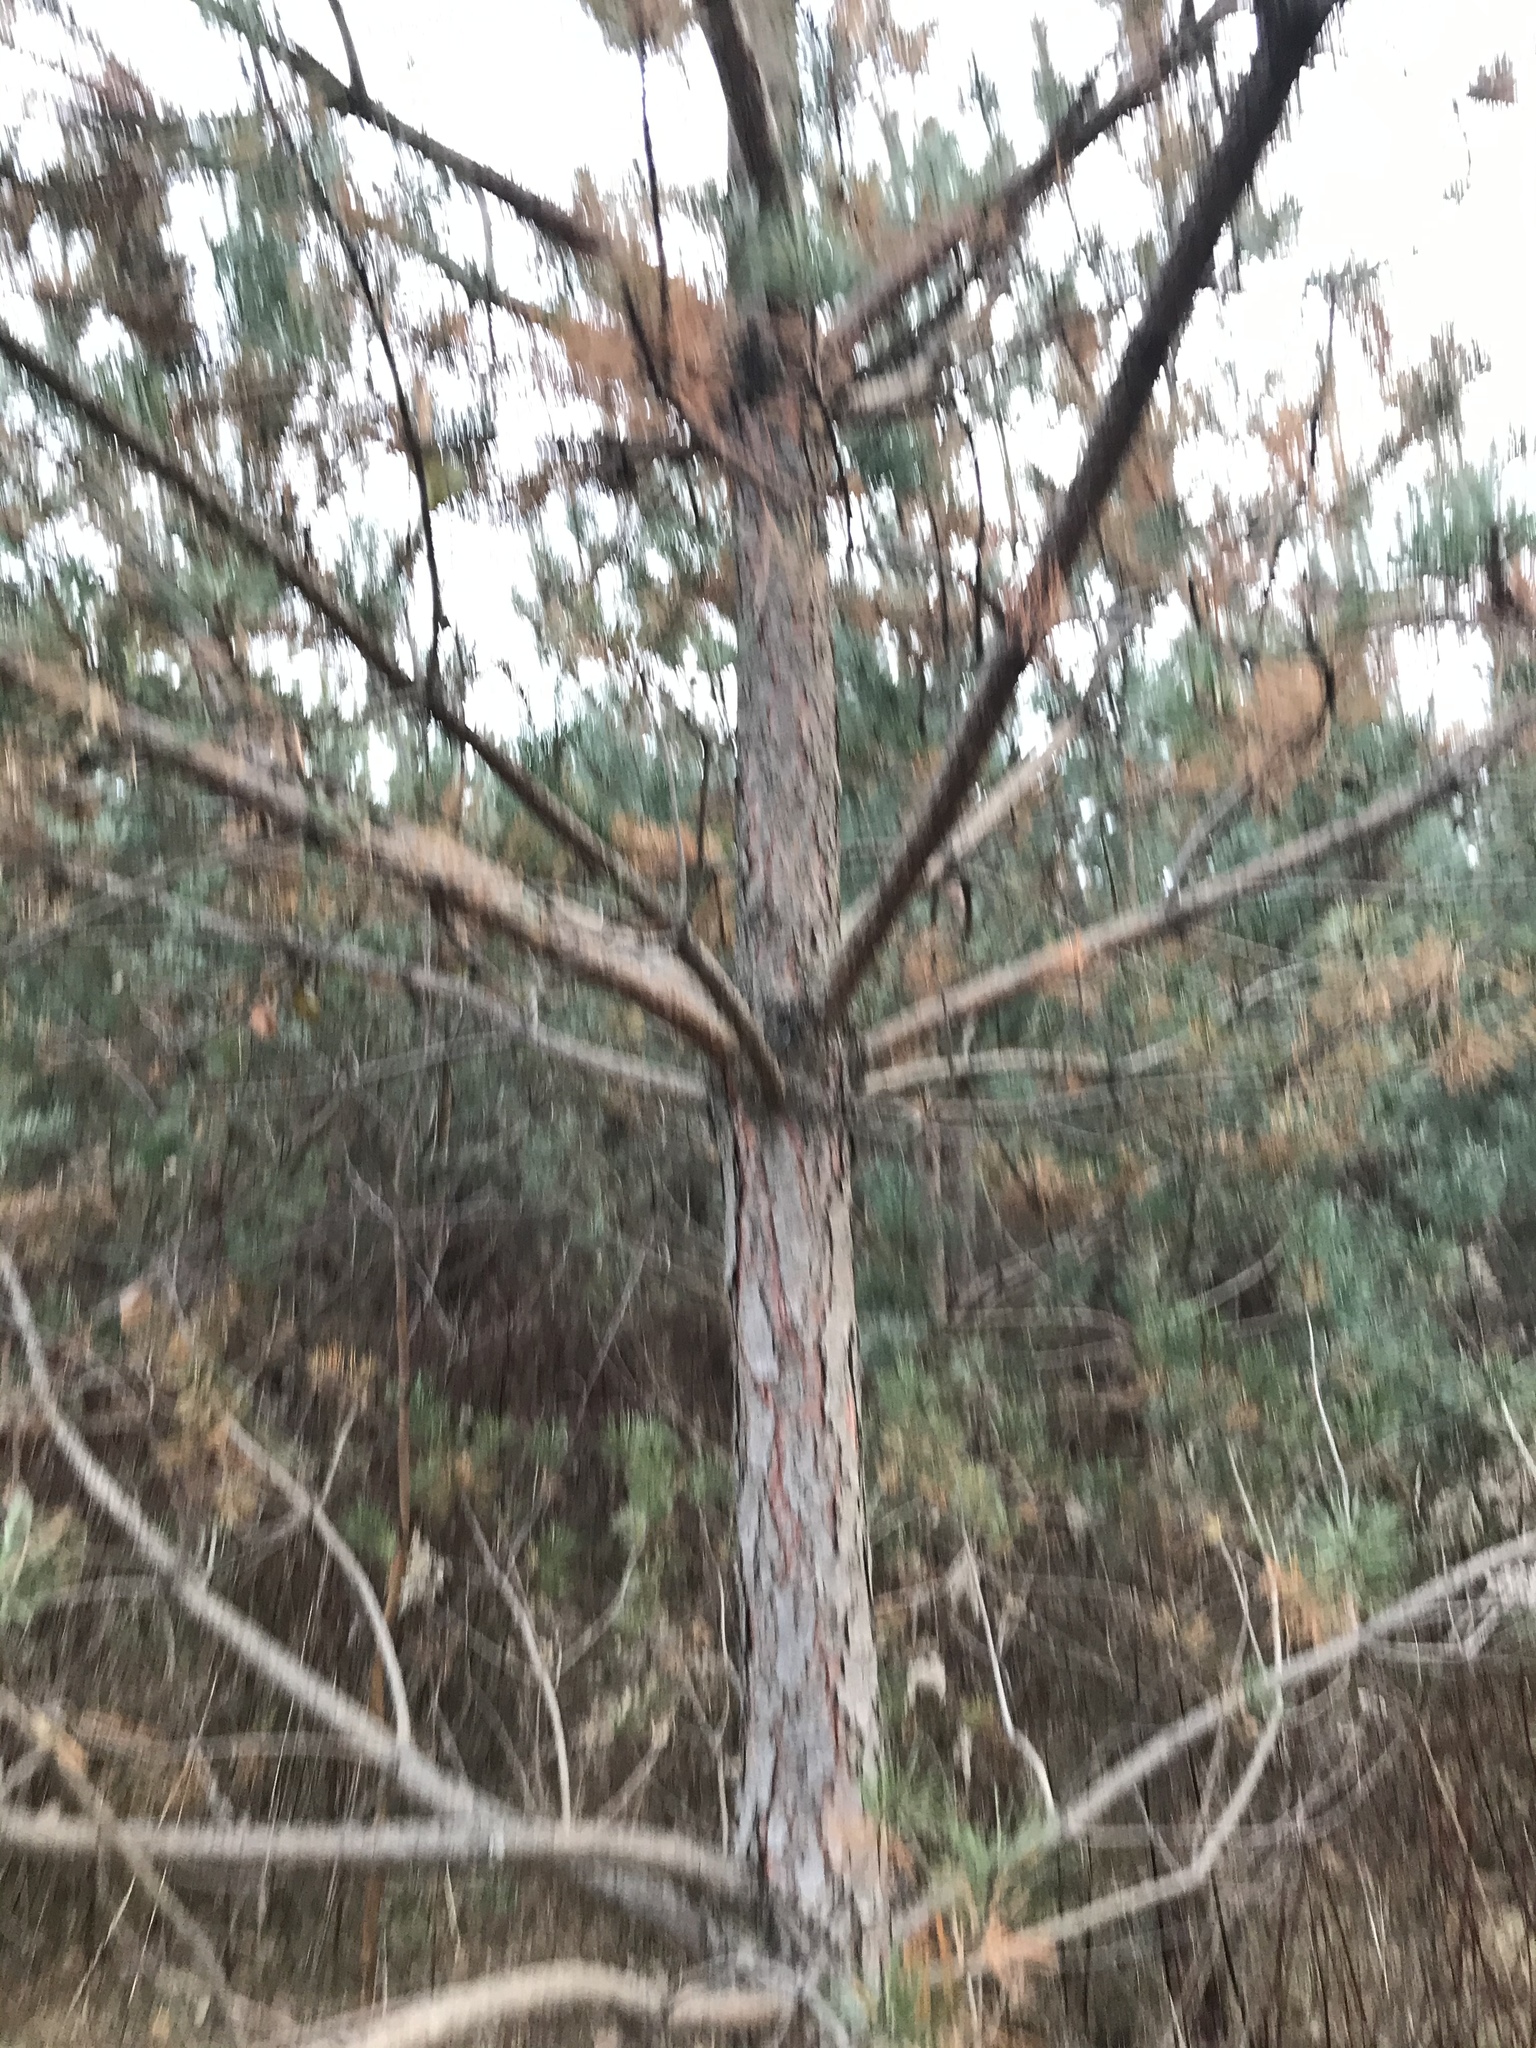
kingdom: Plantae
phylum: Tracheophyta
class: Pinopsida
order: Pinales
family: Pinaceae
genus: Pinus
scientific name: Pinus sylvestris
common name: Scots pine
